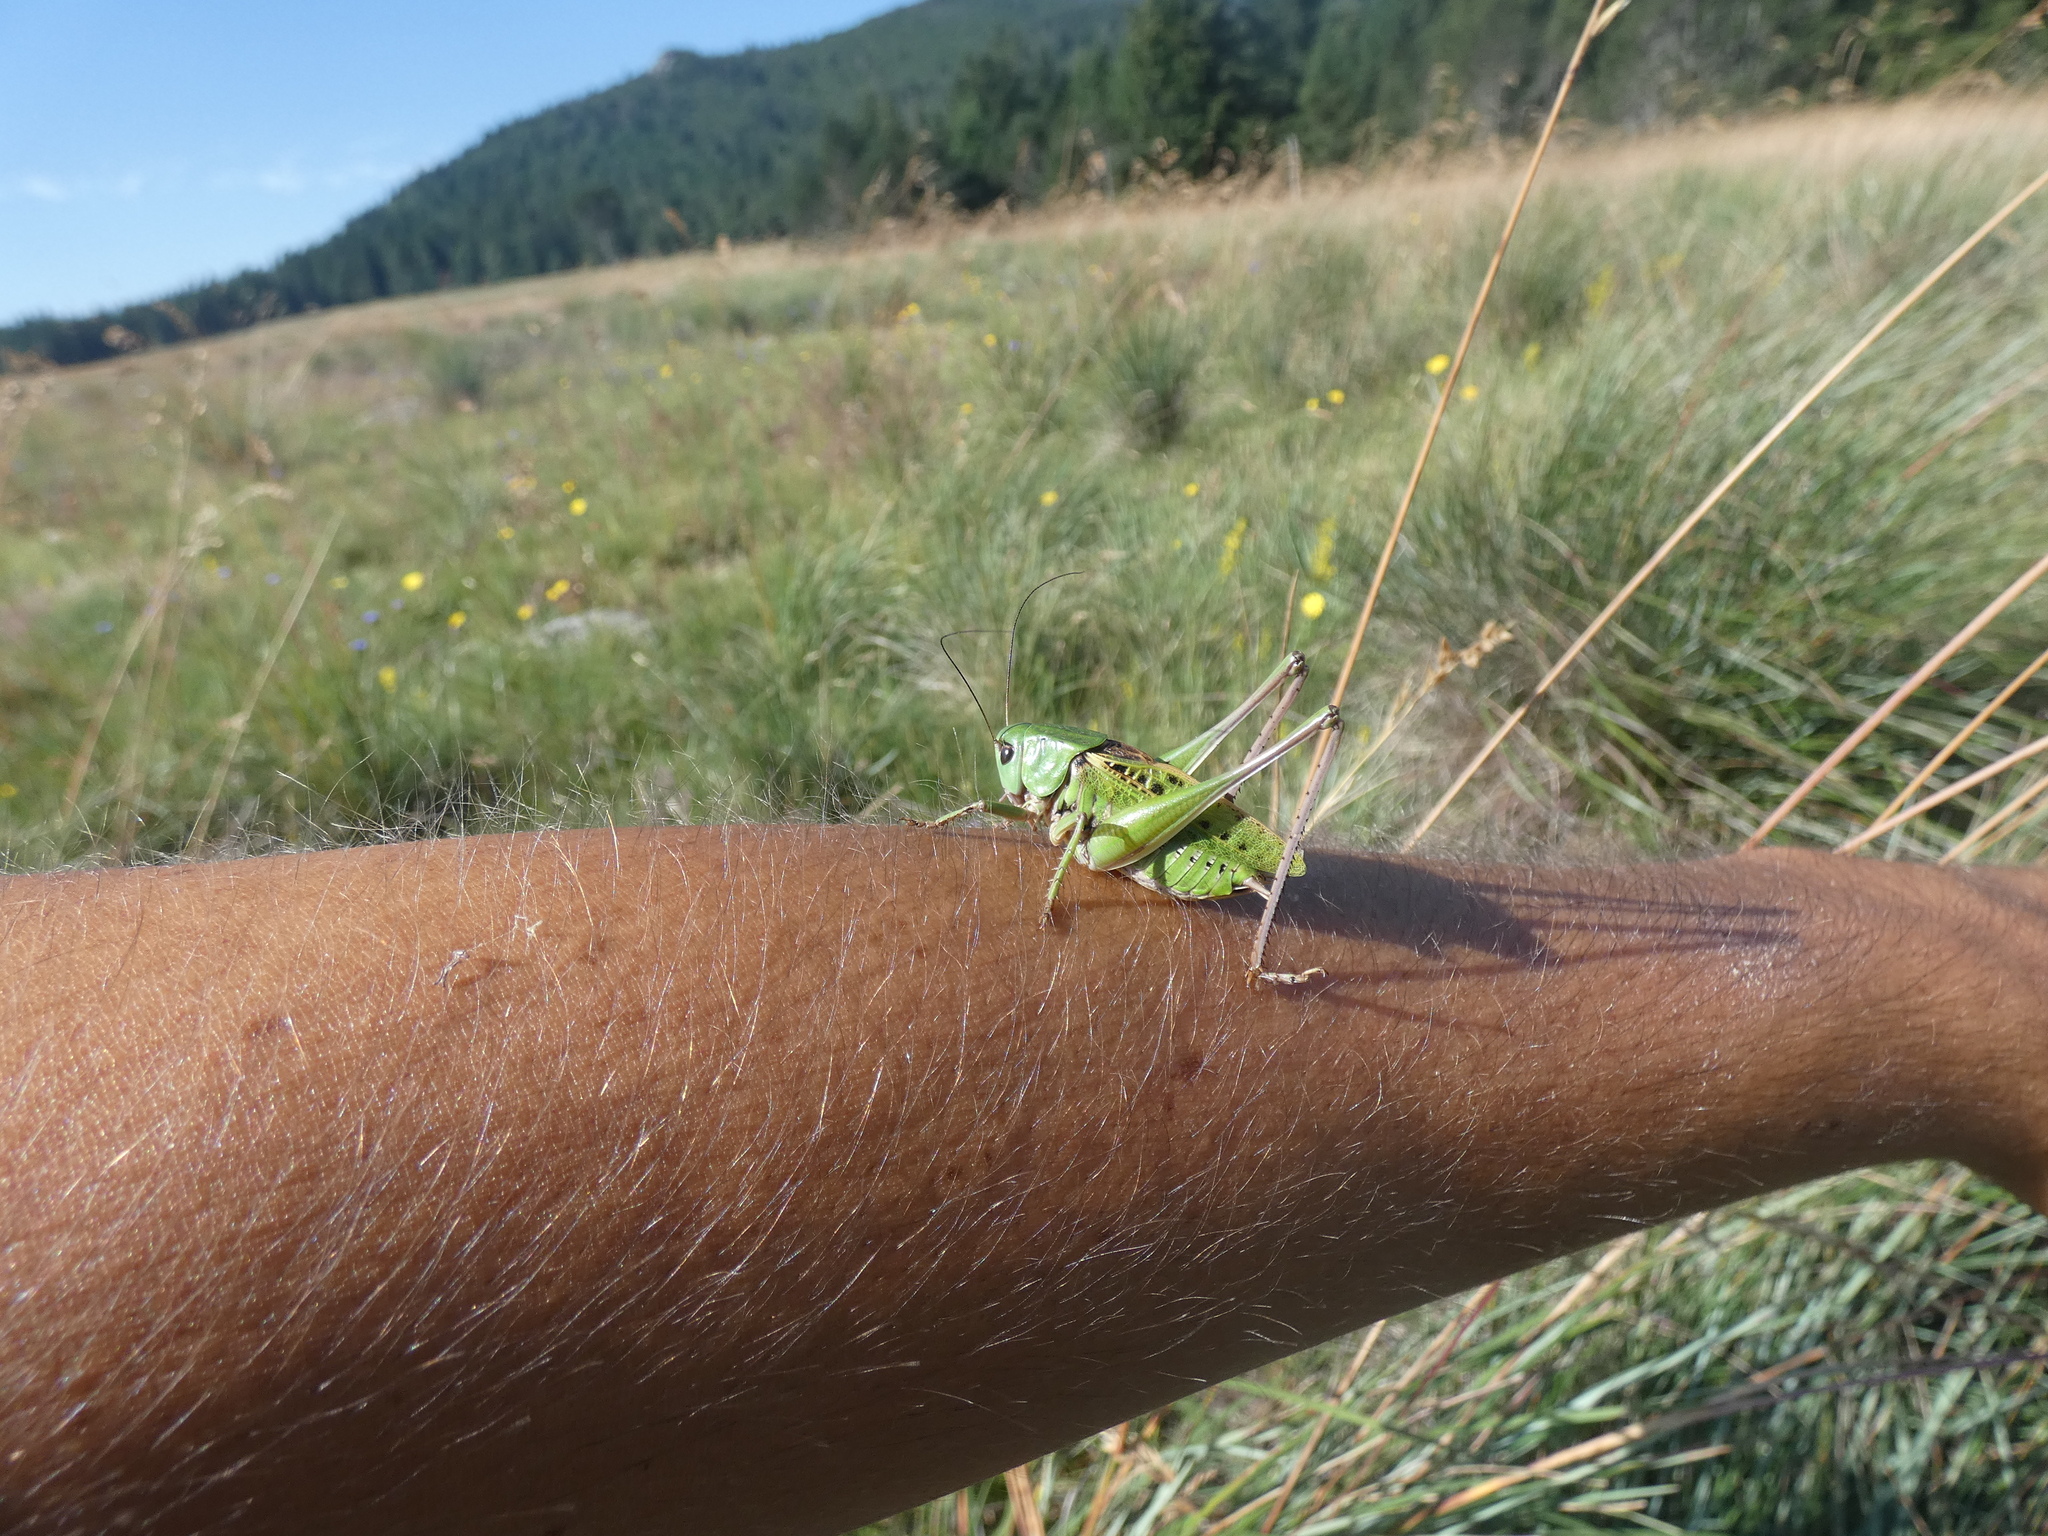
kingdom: Animalia
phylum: Arthropoda
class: Insecta
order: Orthoptera
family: Tettigoniidae
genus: Decticus
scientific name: Decticus verrucivorus
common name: Wart-biter
